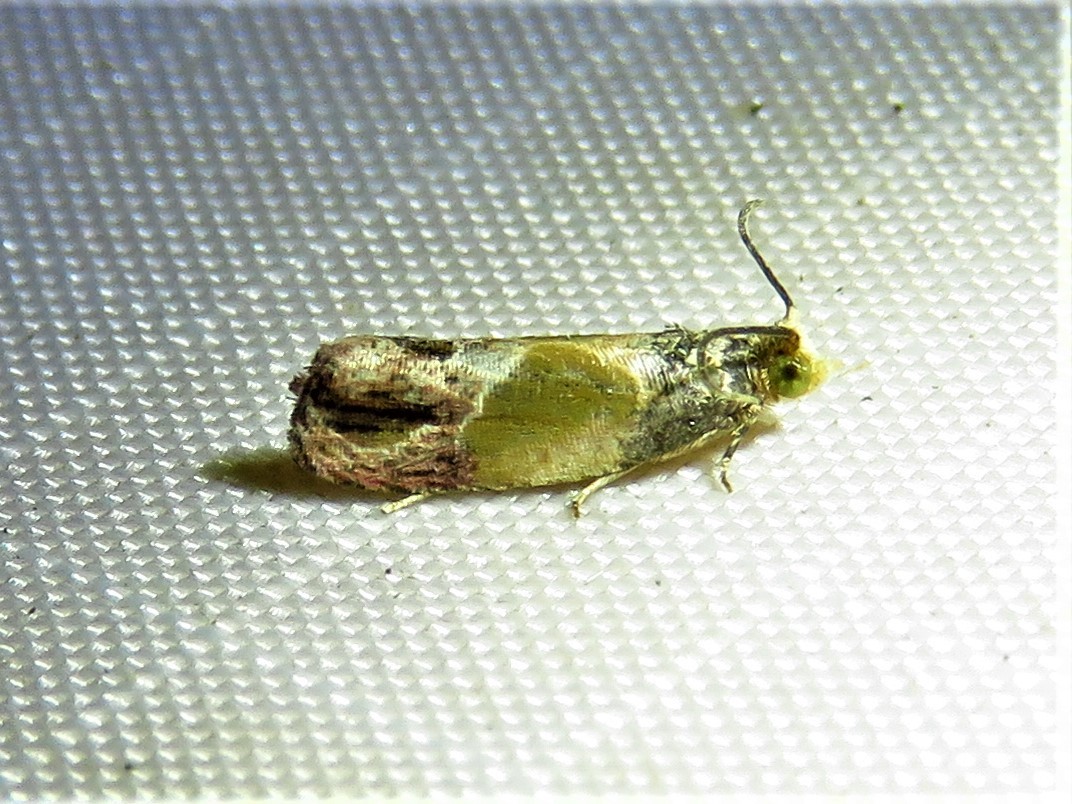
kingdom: Animalia
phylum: Arthropoda
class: Insecta
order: Lepidoptera
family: Tortricidae
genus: Eumarozia
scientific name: Eumarozia malachitana
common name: Sculptured moth
